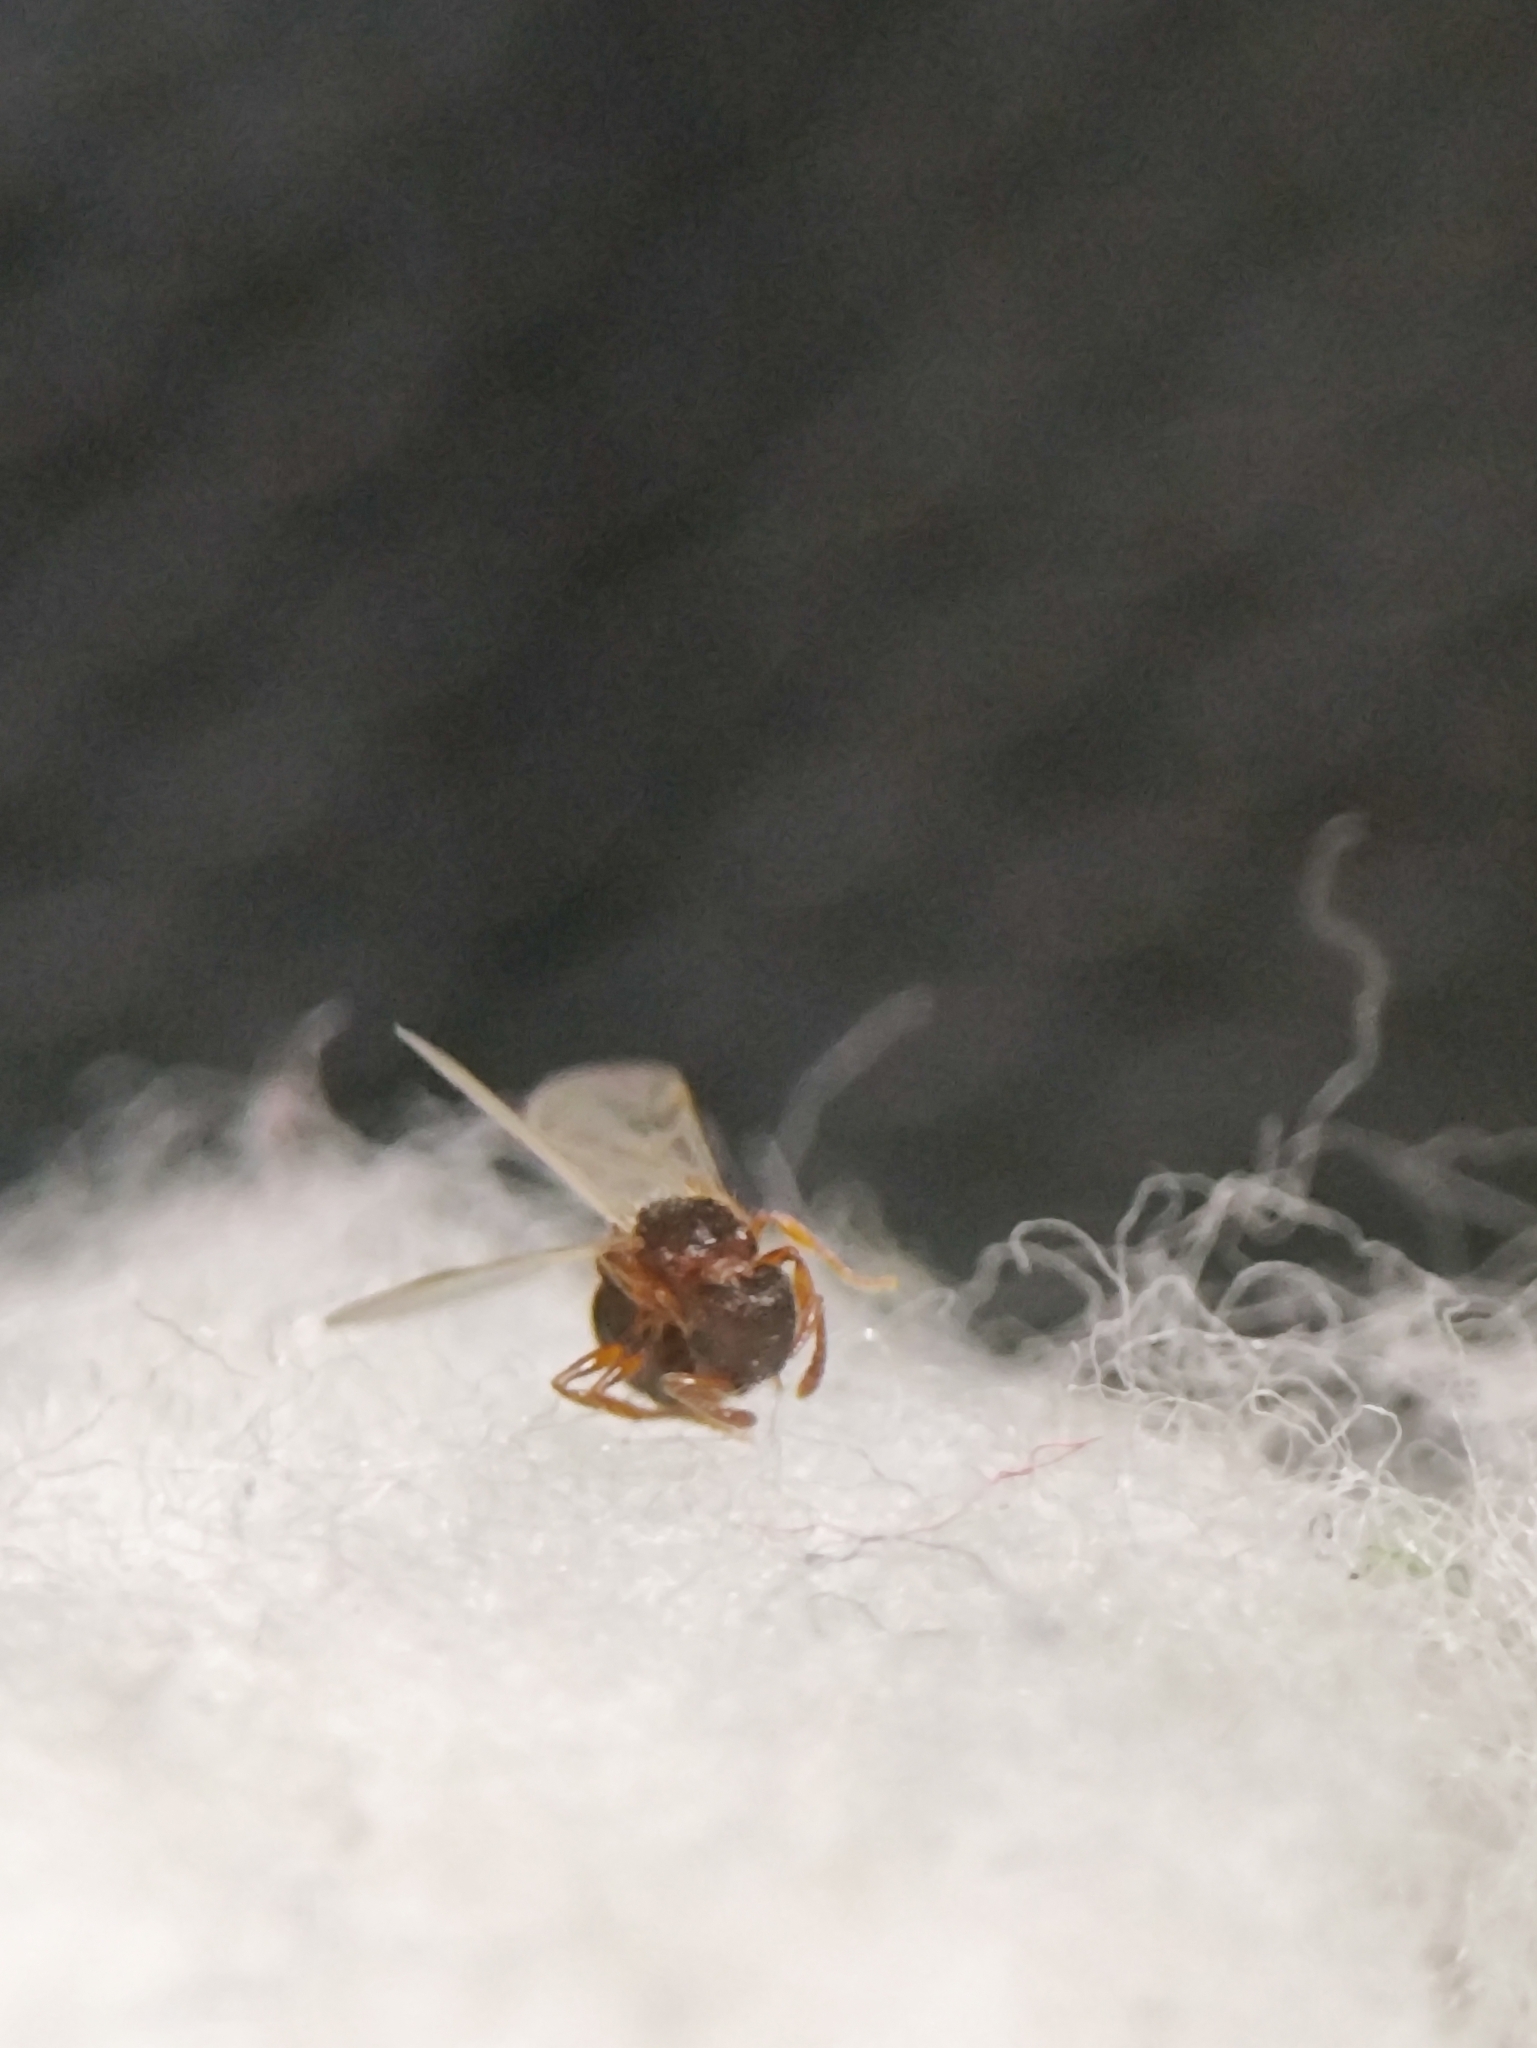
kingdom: Animalia
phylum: Arthropoda
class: Insecta
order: Hymenoptera
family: Formicidae
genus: Tetramorium
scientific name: Tetramorium smithi
